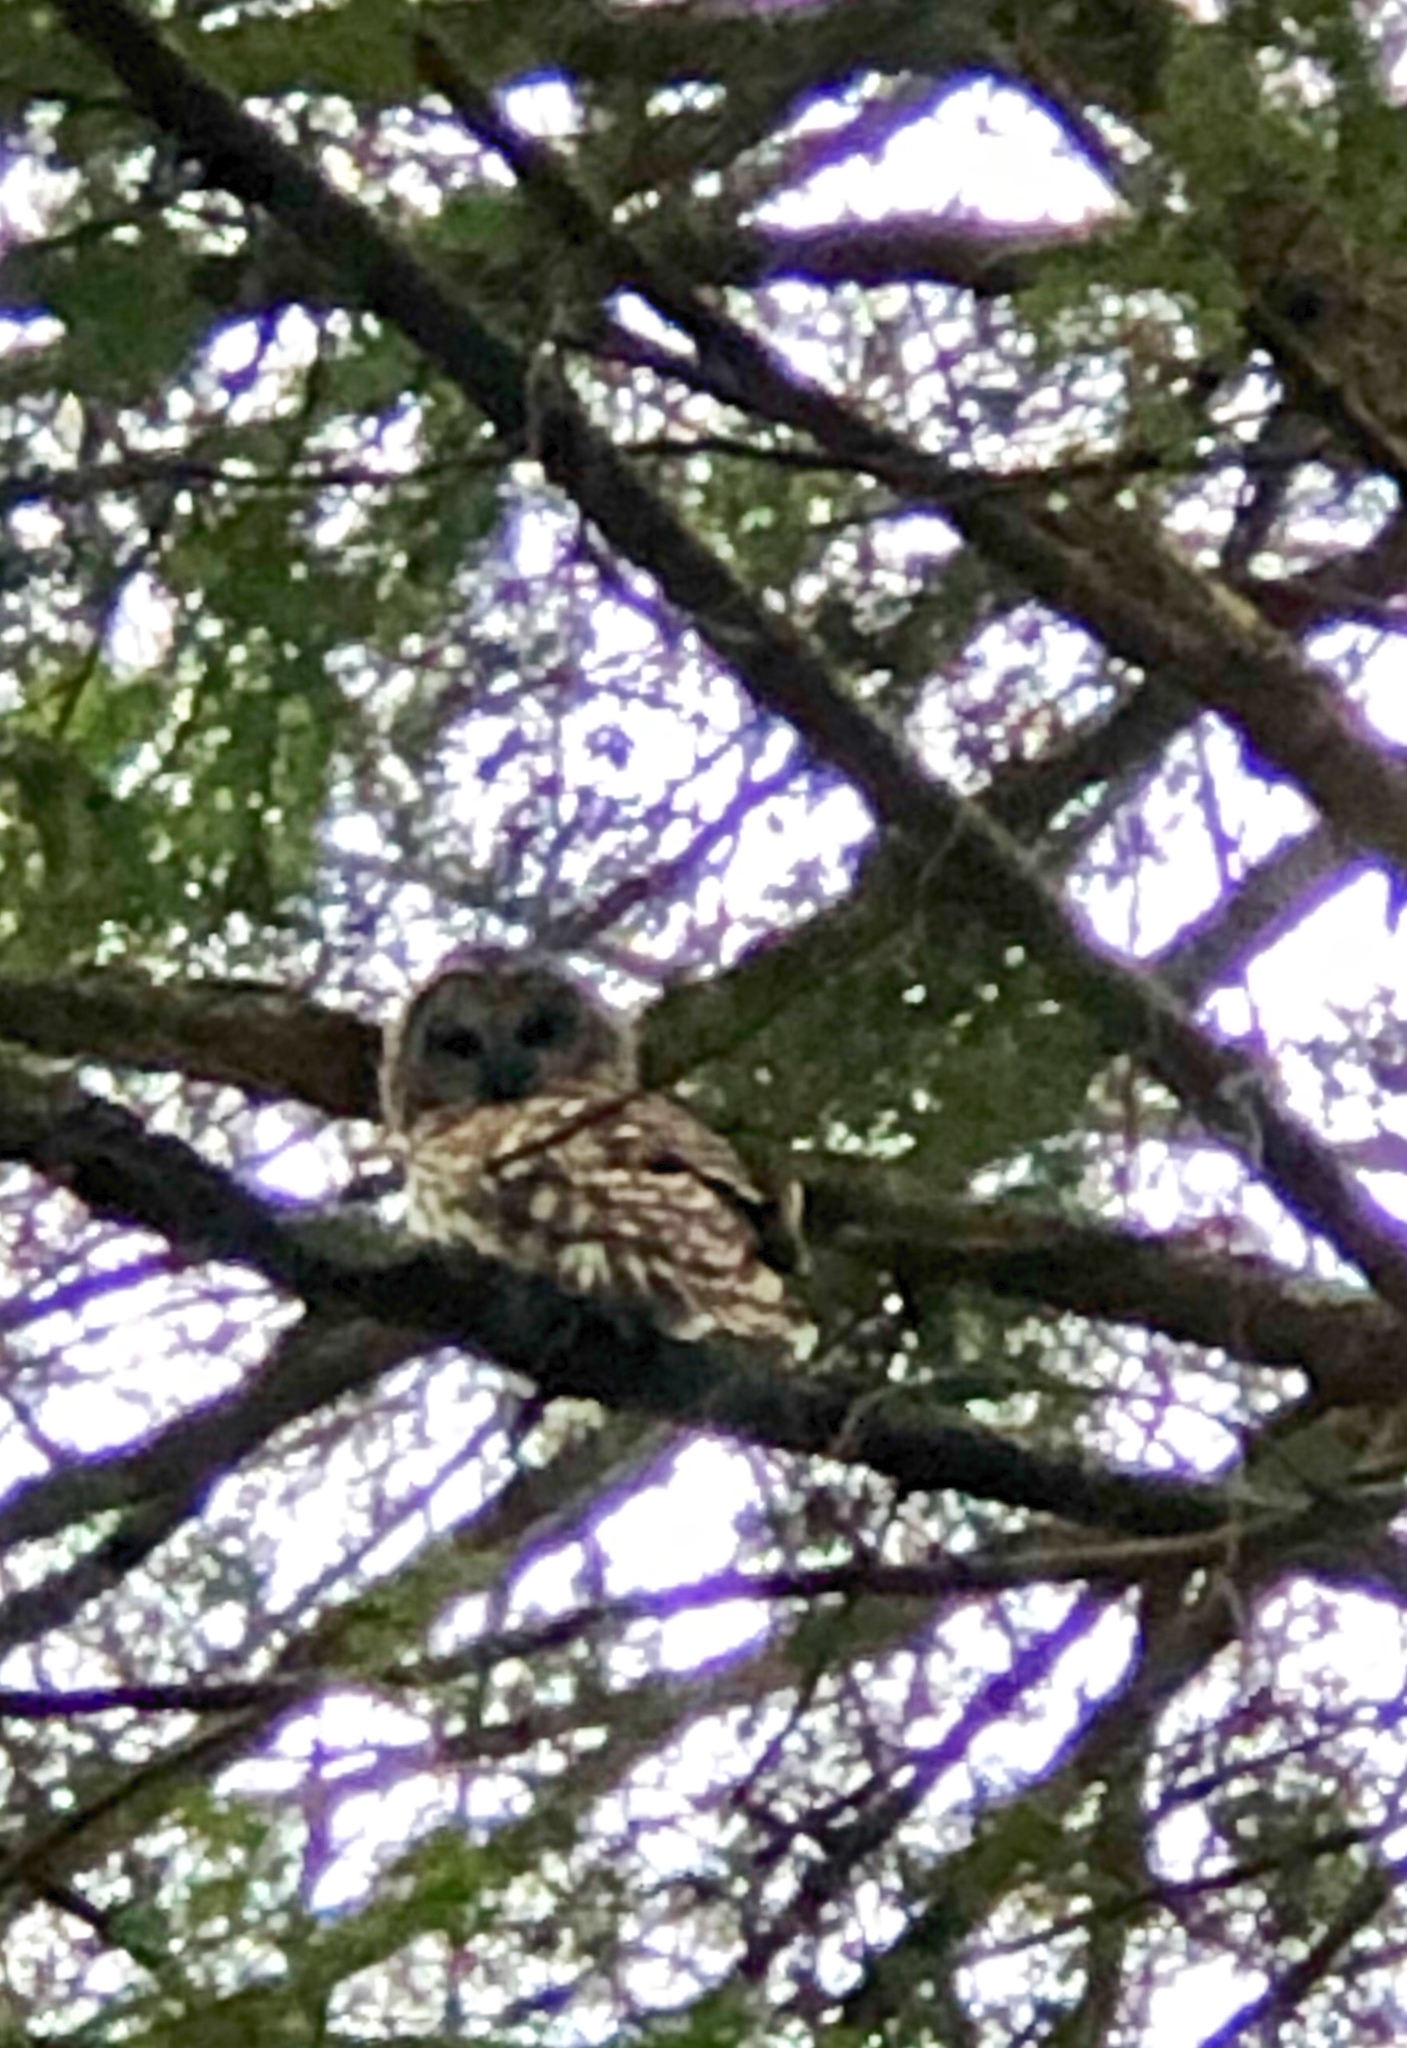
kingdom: Animalia
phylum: Chordata
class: Aves
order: Strigiformes
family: Strigidae
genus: Strix
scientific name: Strix varia
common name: Barred owl
